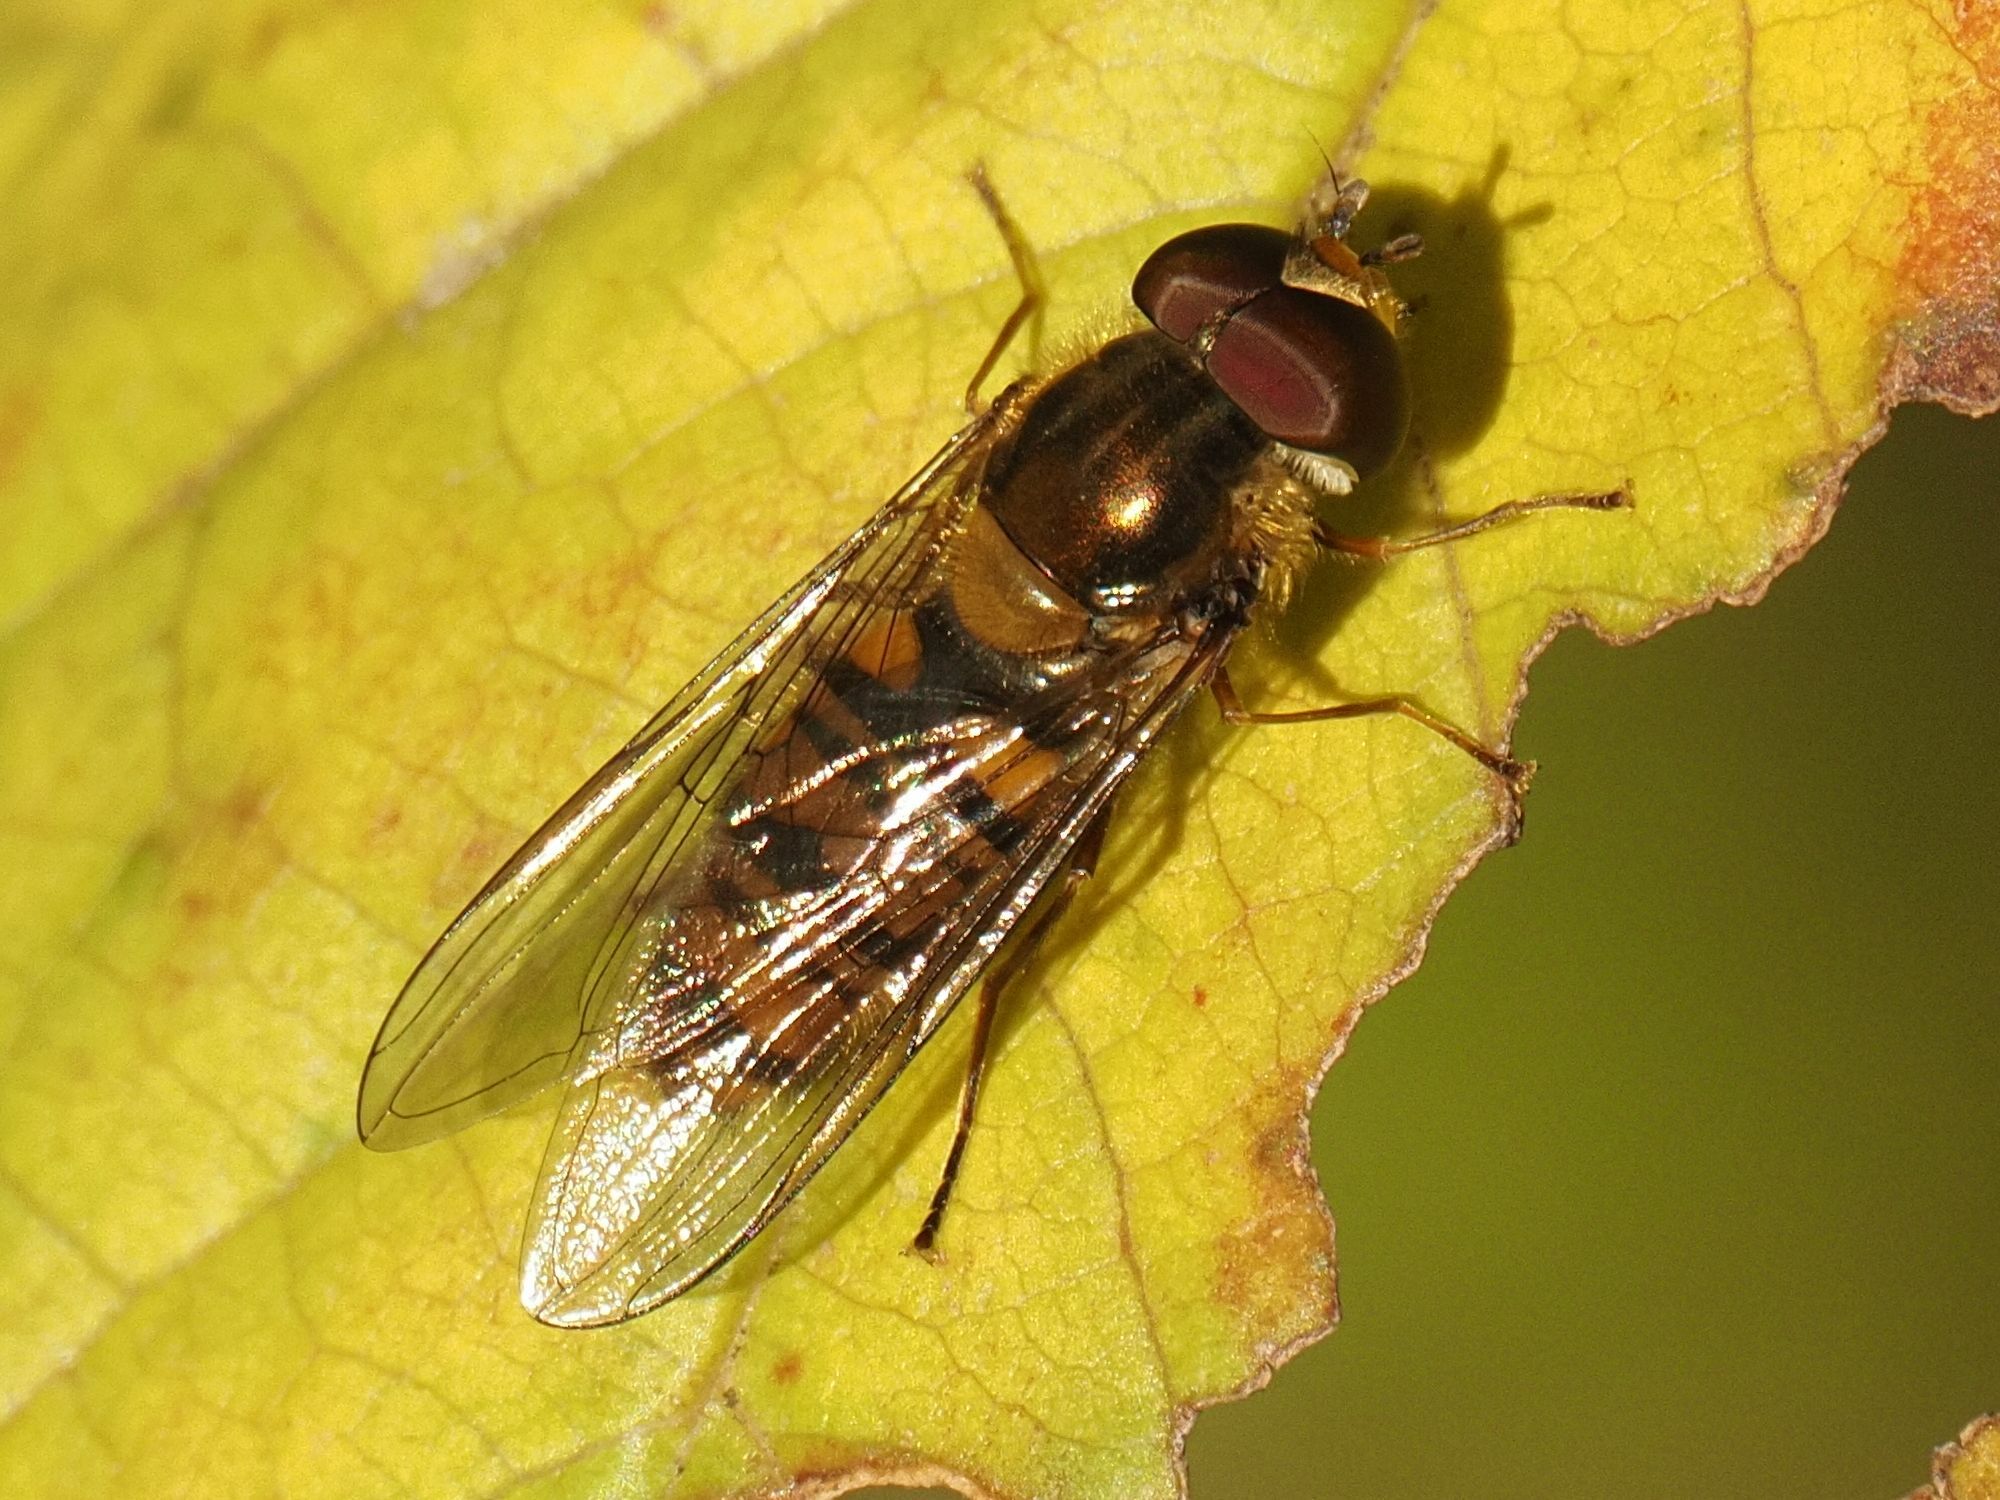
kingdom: Animalia
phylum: Arthropoda
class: Insecta
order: Diptera
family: Syrphidae
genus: Episyrphus
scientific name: Episyrphus balteatus
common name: Marmalade hoverfly
